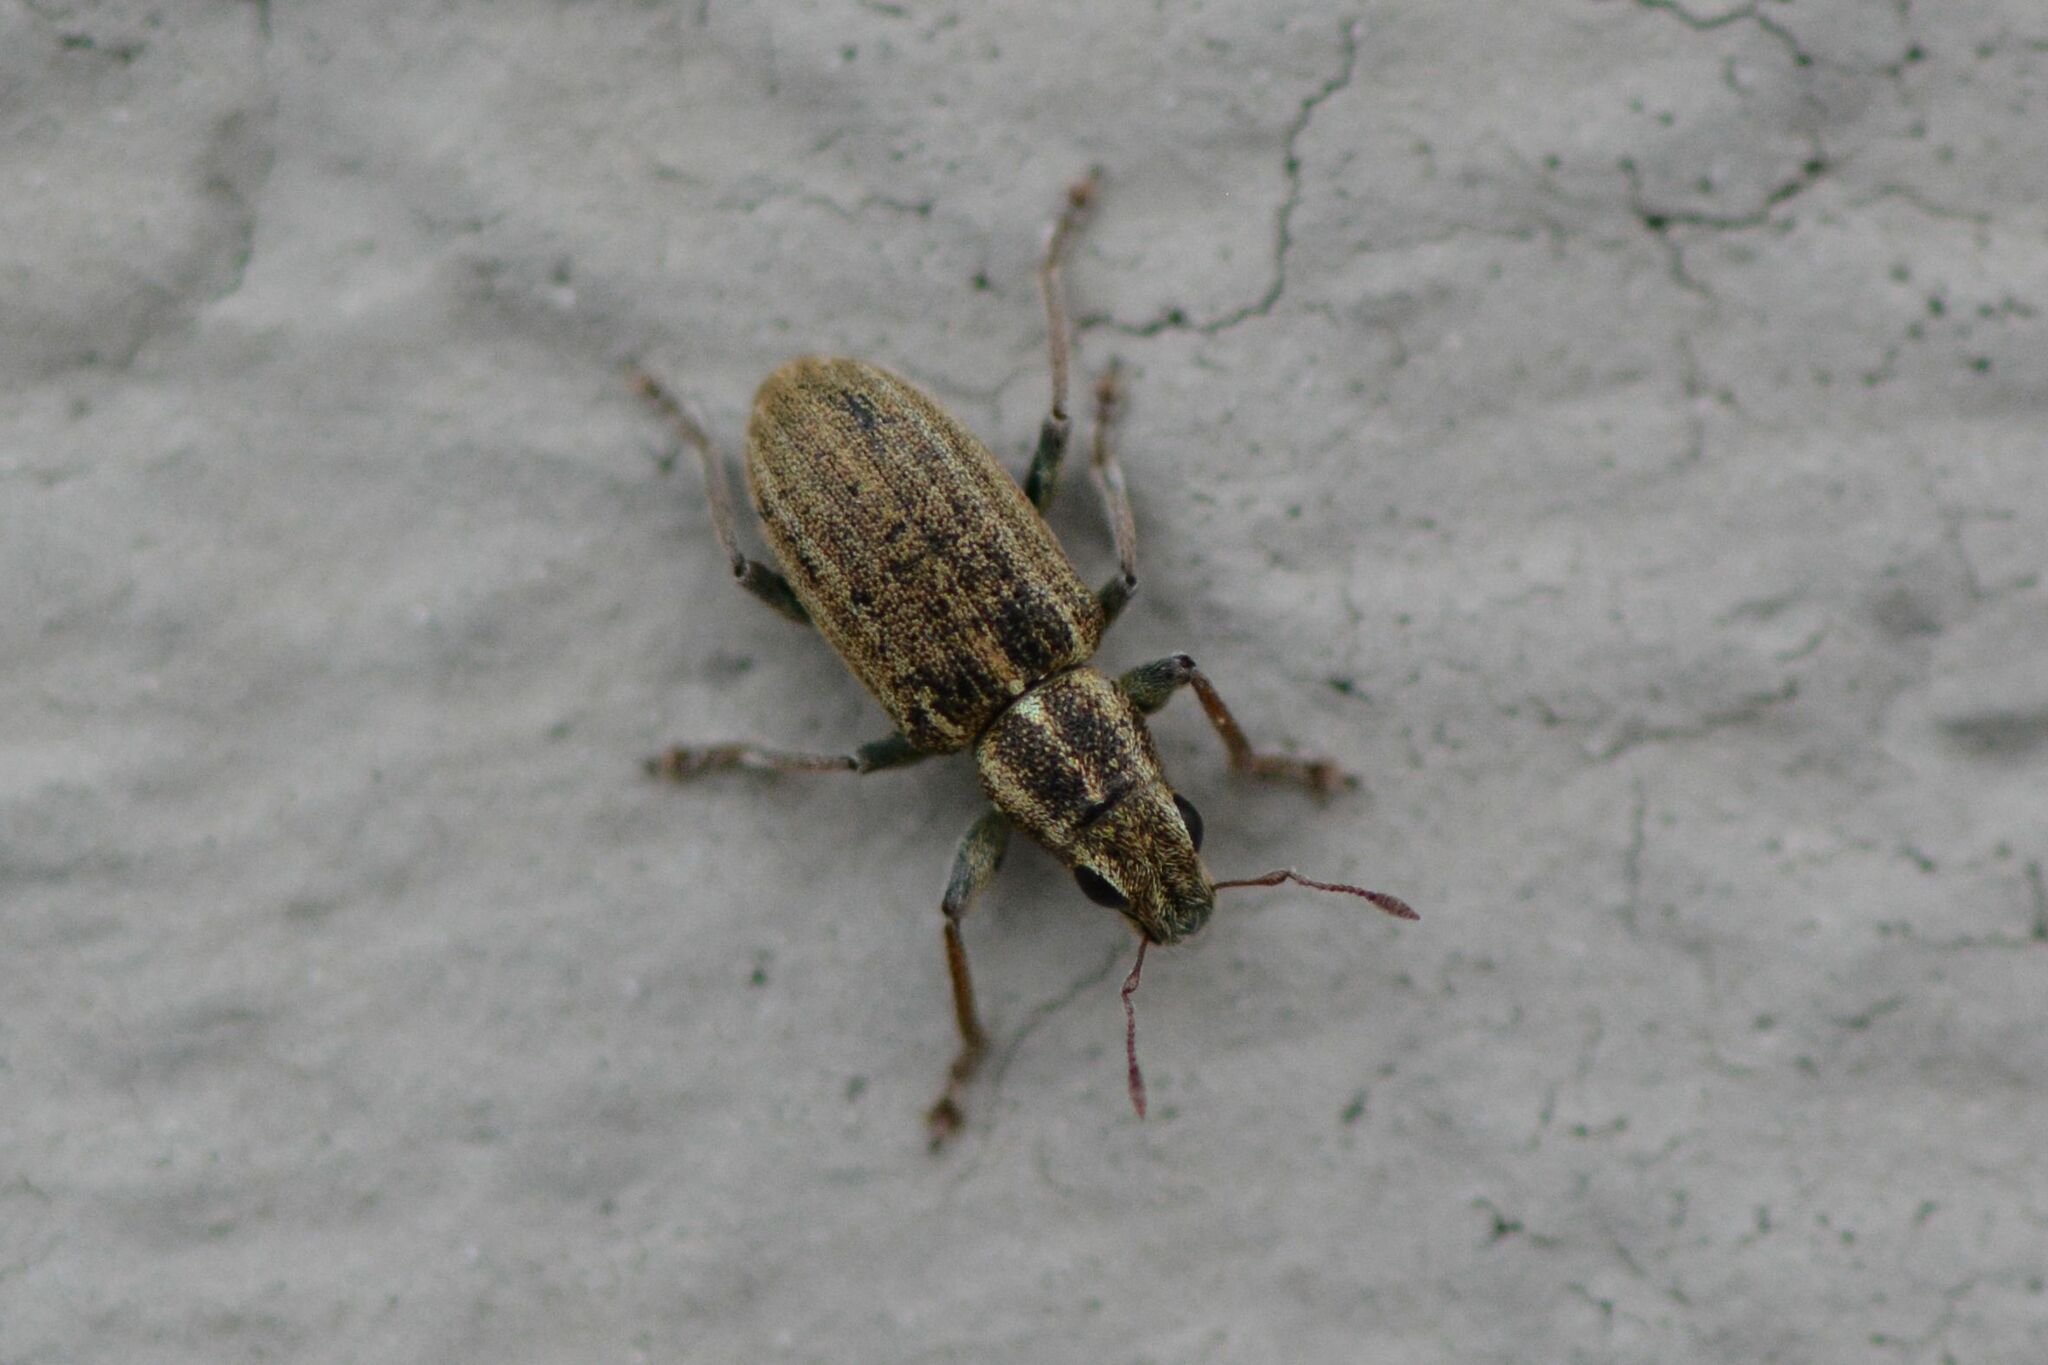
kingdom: Animalia
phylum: Arthropoda
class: Insecta
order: Coleoptera
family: Curculionidae
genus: Sitona
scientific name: Sitona lineatus
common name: Weevil
